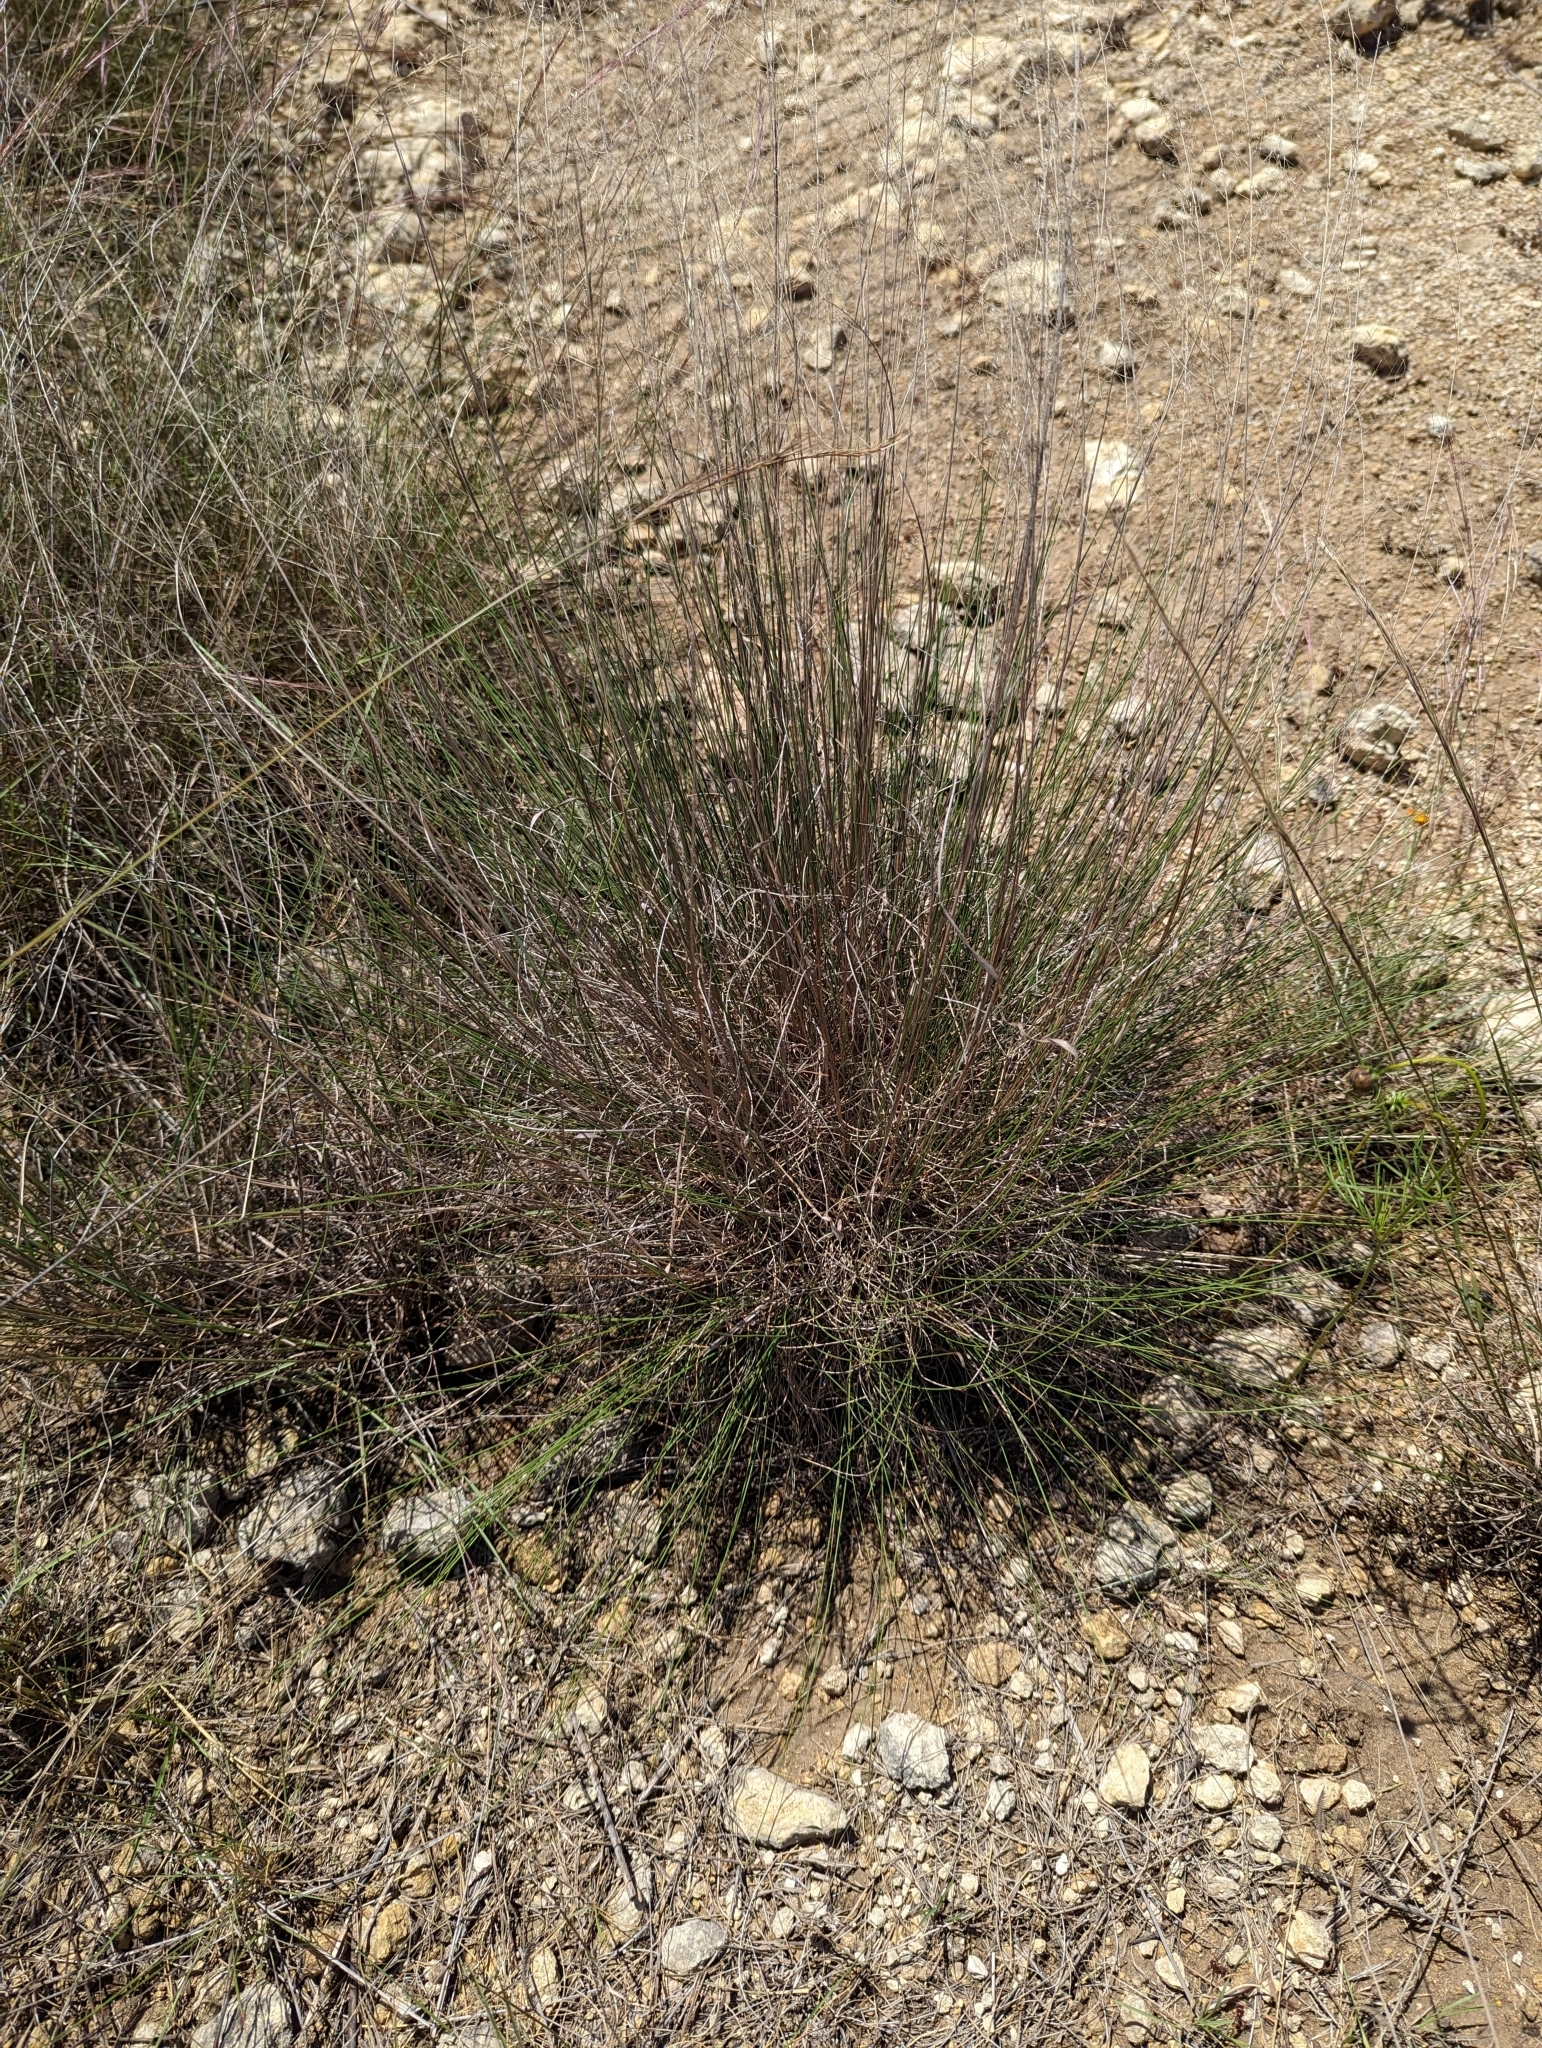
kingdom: Plantae
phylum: Tracheophyta
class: Liliopsida
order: Poales
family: Poaceae
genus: Muhlenbergia
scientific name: Muhlenbergia reverchonii
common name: Seep muhly
